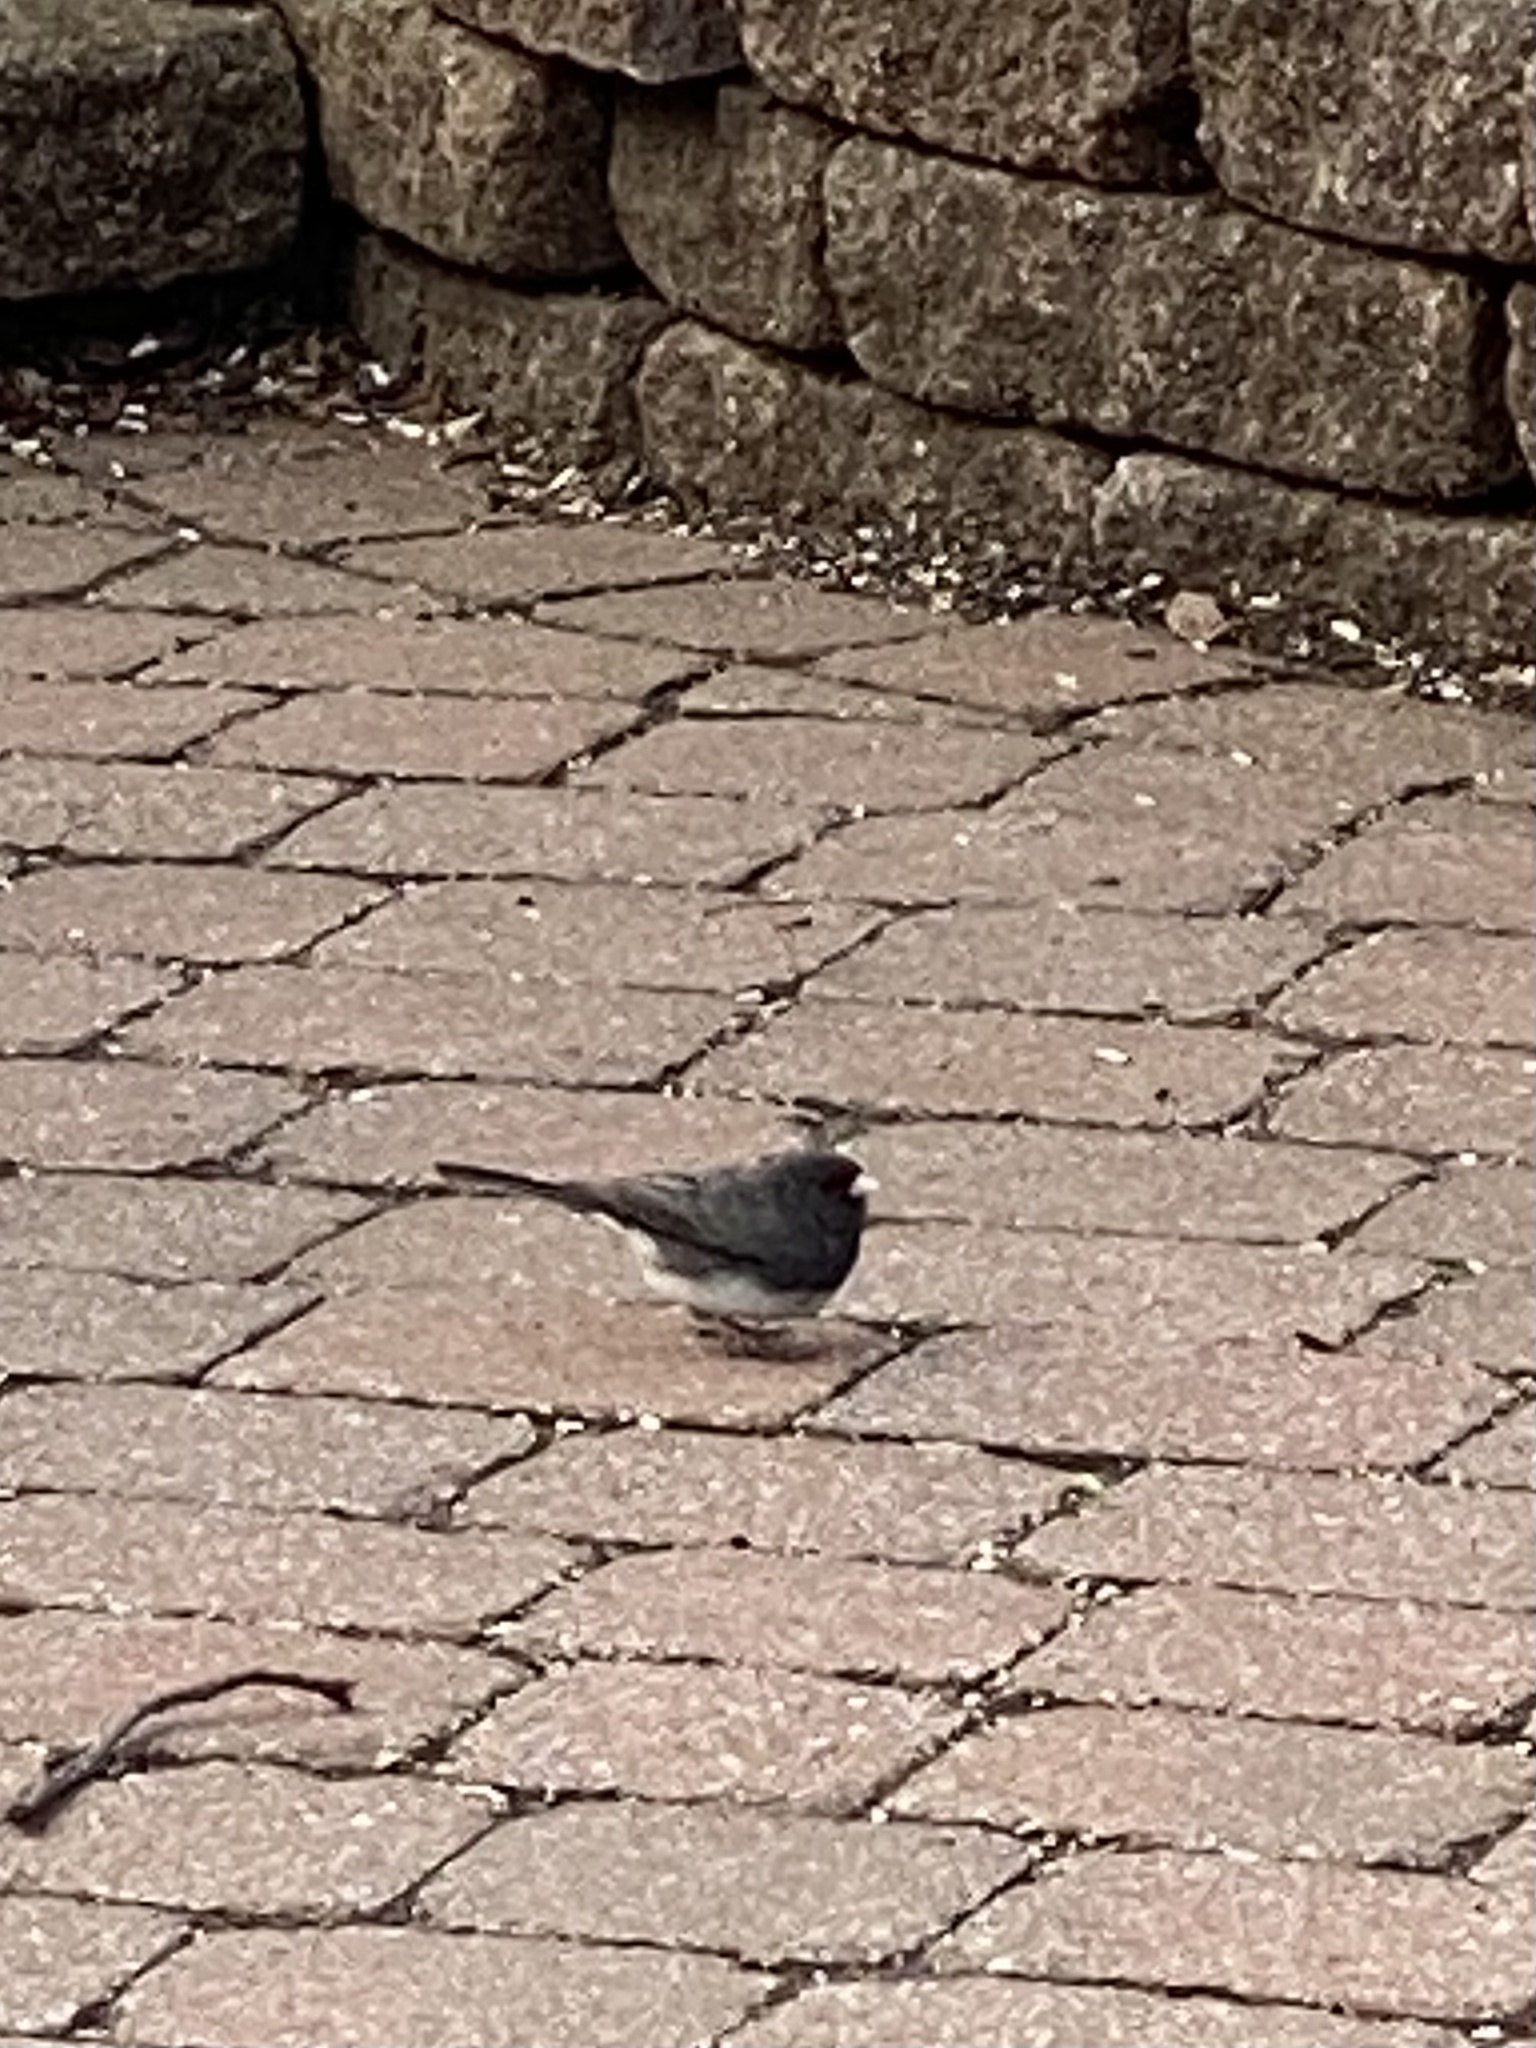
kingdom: Animalia
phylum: Chordata
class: Aves
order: Passeriformes
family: Passerellidae
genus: Junco
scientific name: Junco hyemalis
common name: Dark-eyed junco
